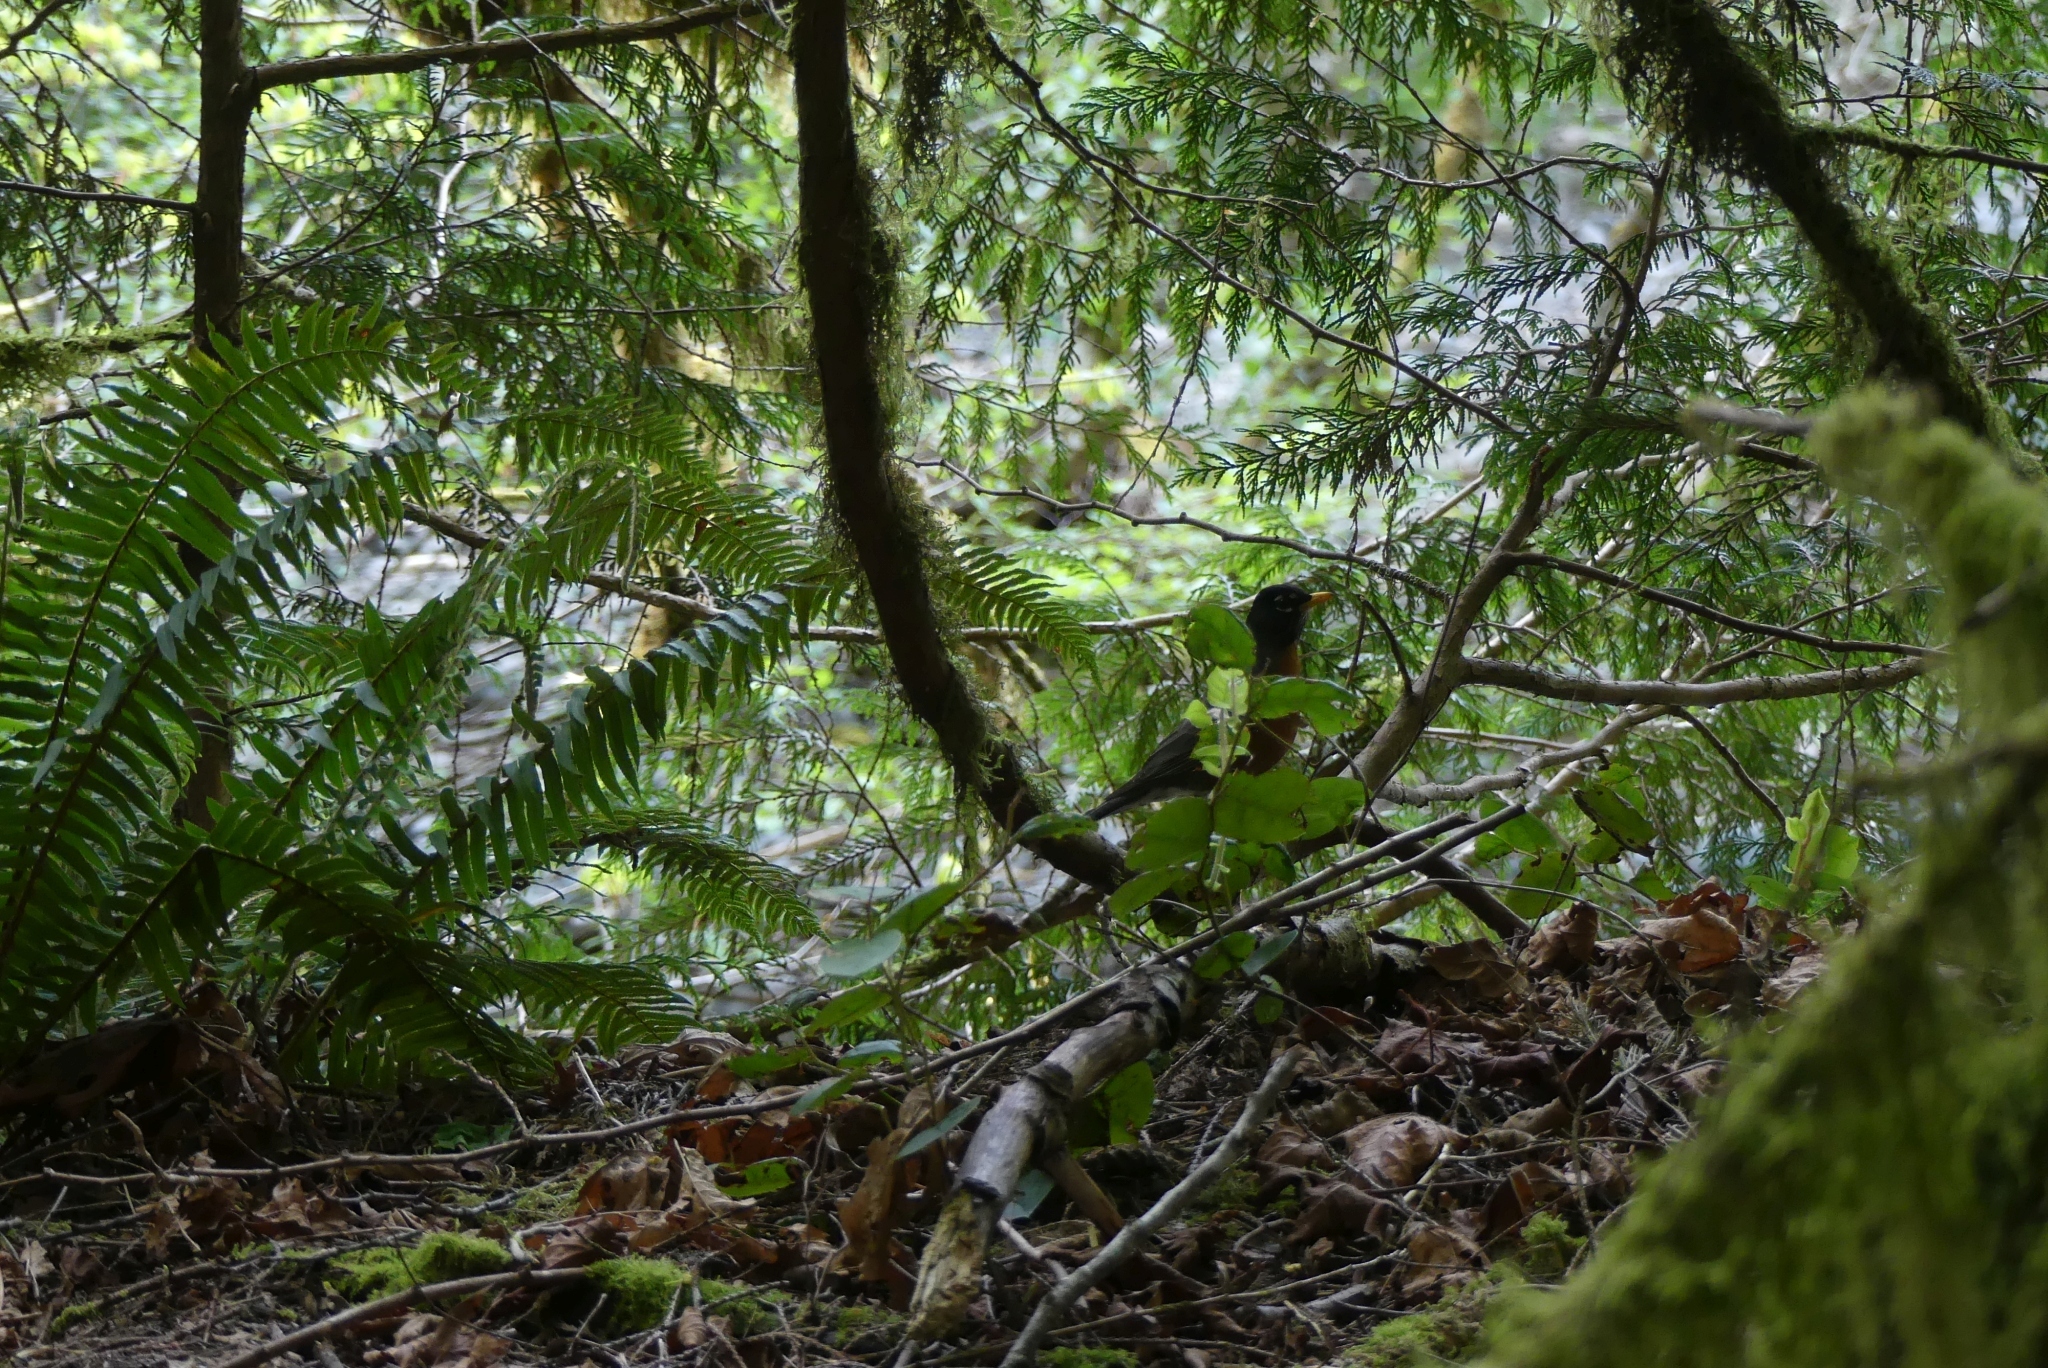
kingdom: Animalia
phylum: Chordata
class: Aves
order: Passeriformes
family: Turdidae
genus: Turdus
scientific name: Turdus migratorius
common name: American robin
